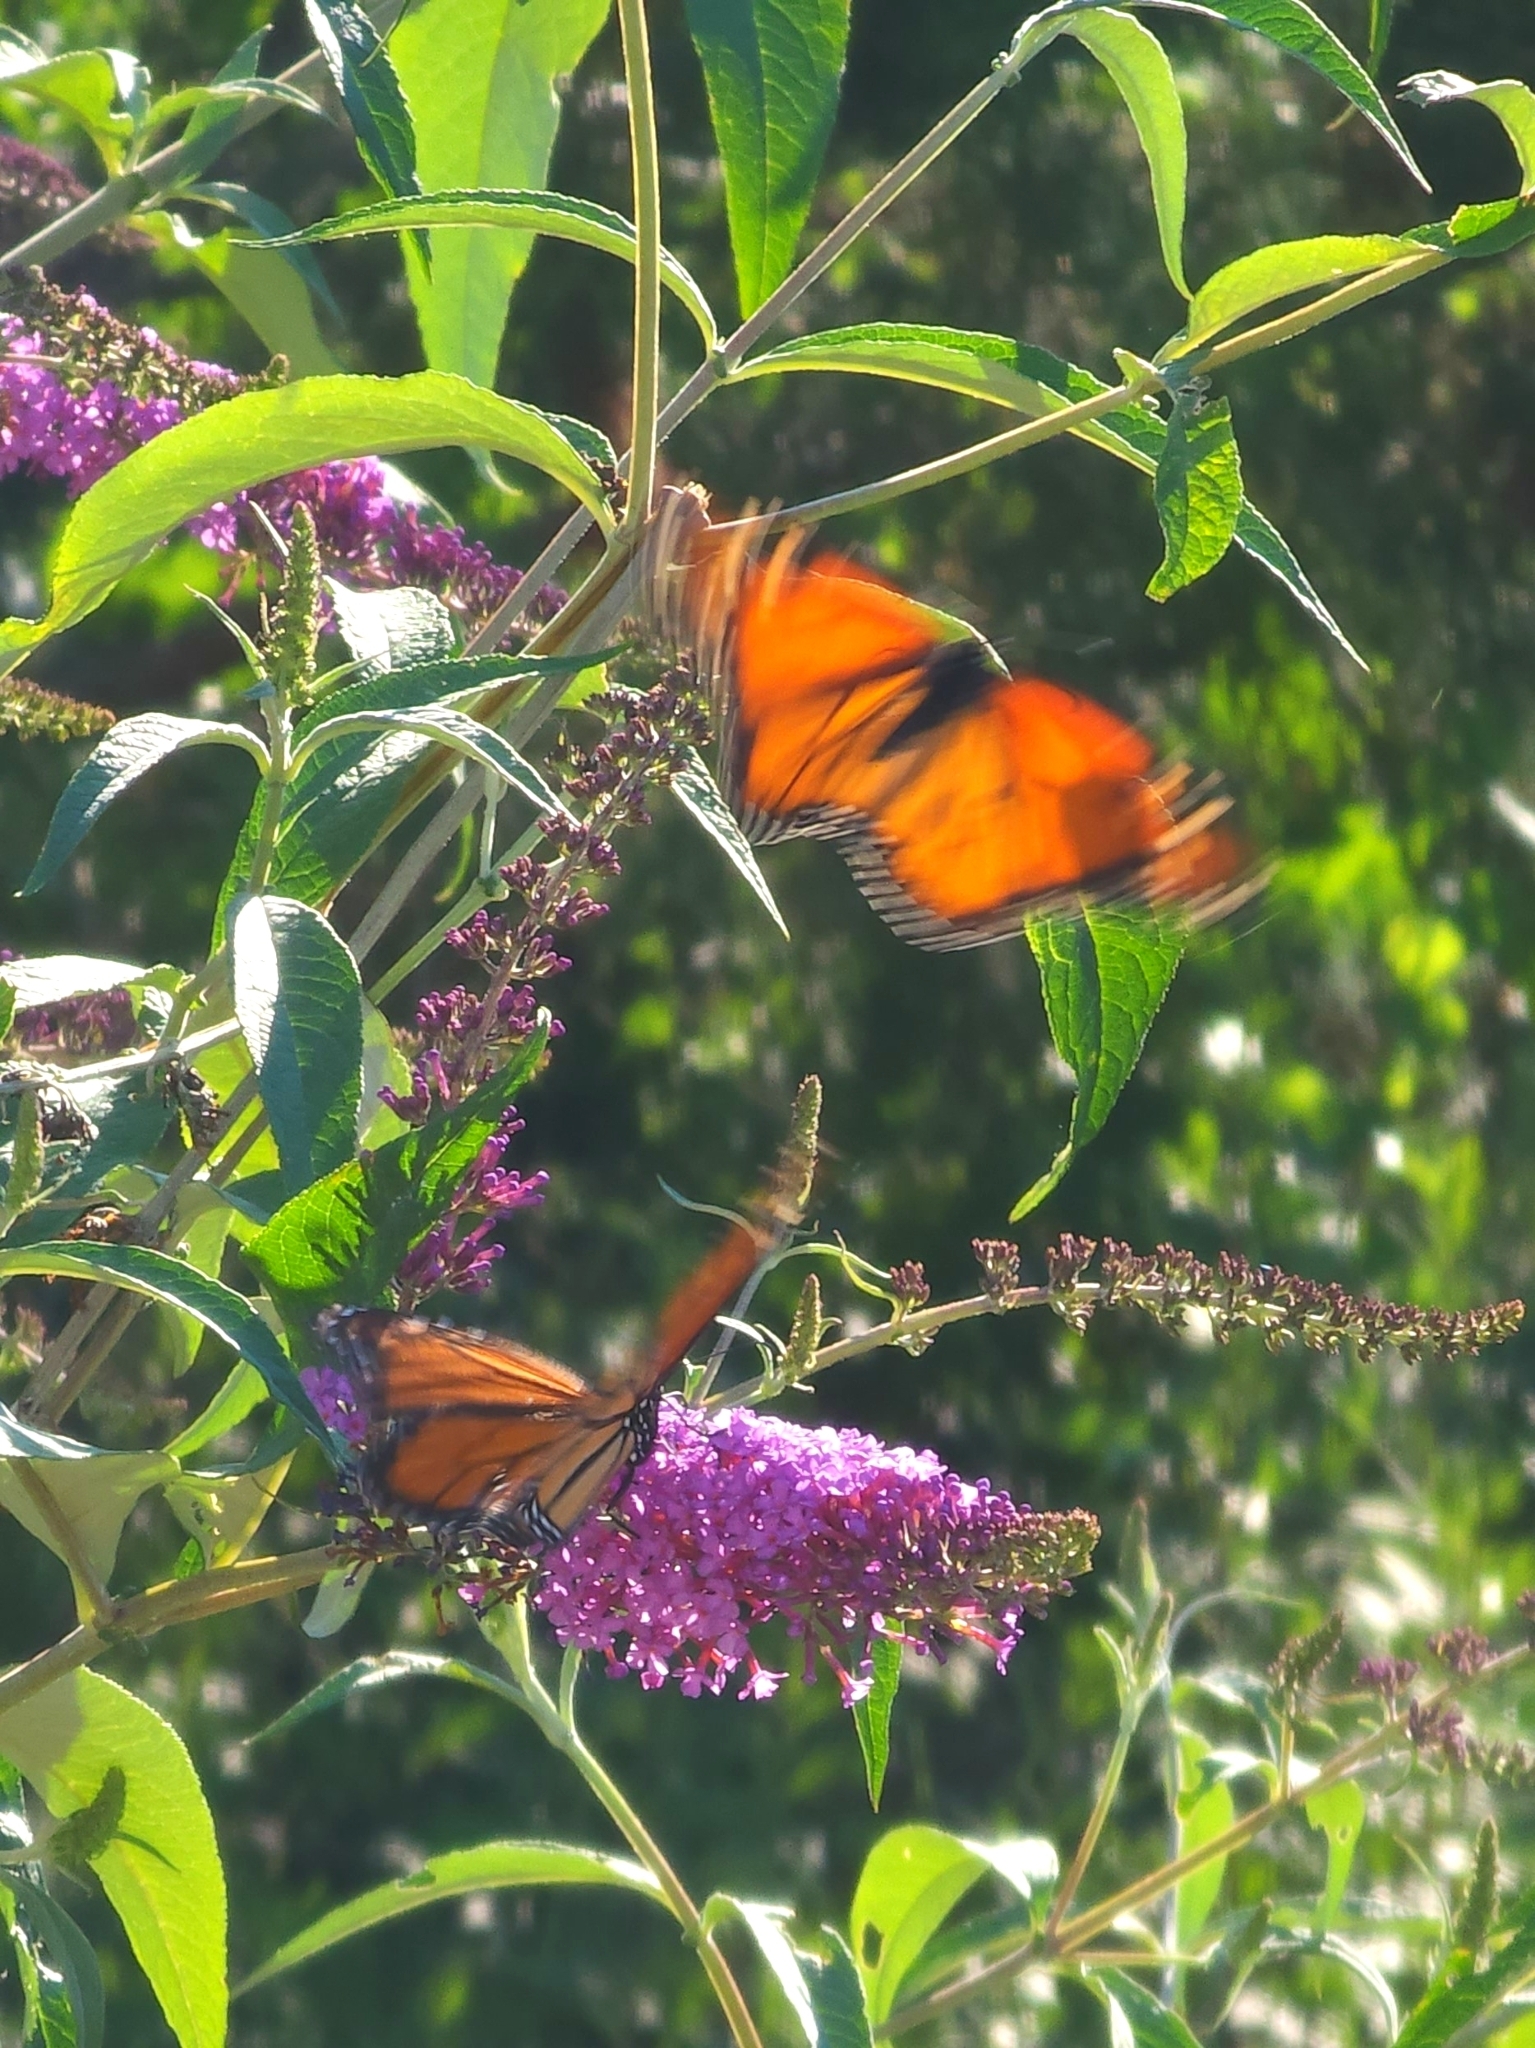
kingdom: Animalia
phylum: Arthropoda
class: Insecta
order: Lepidoptera
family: Nymphalidae
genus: Danaus
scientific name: Danaus plexippus
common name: Monarch
